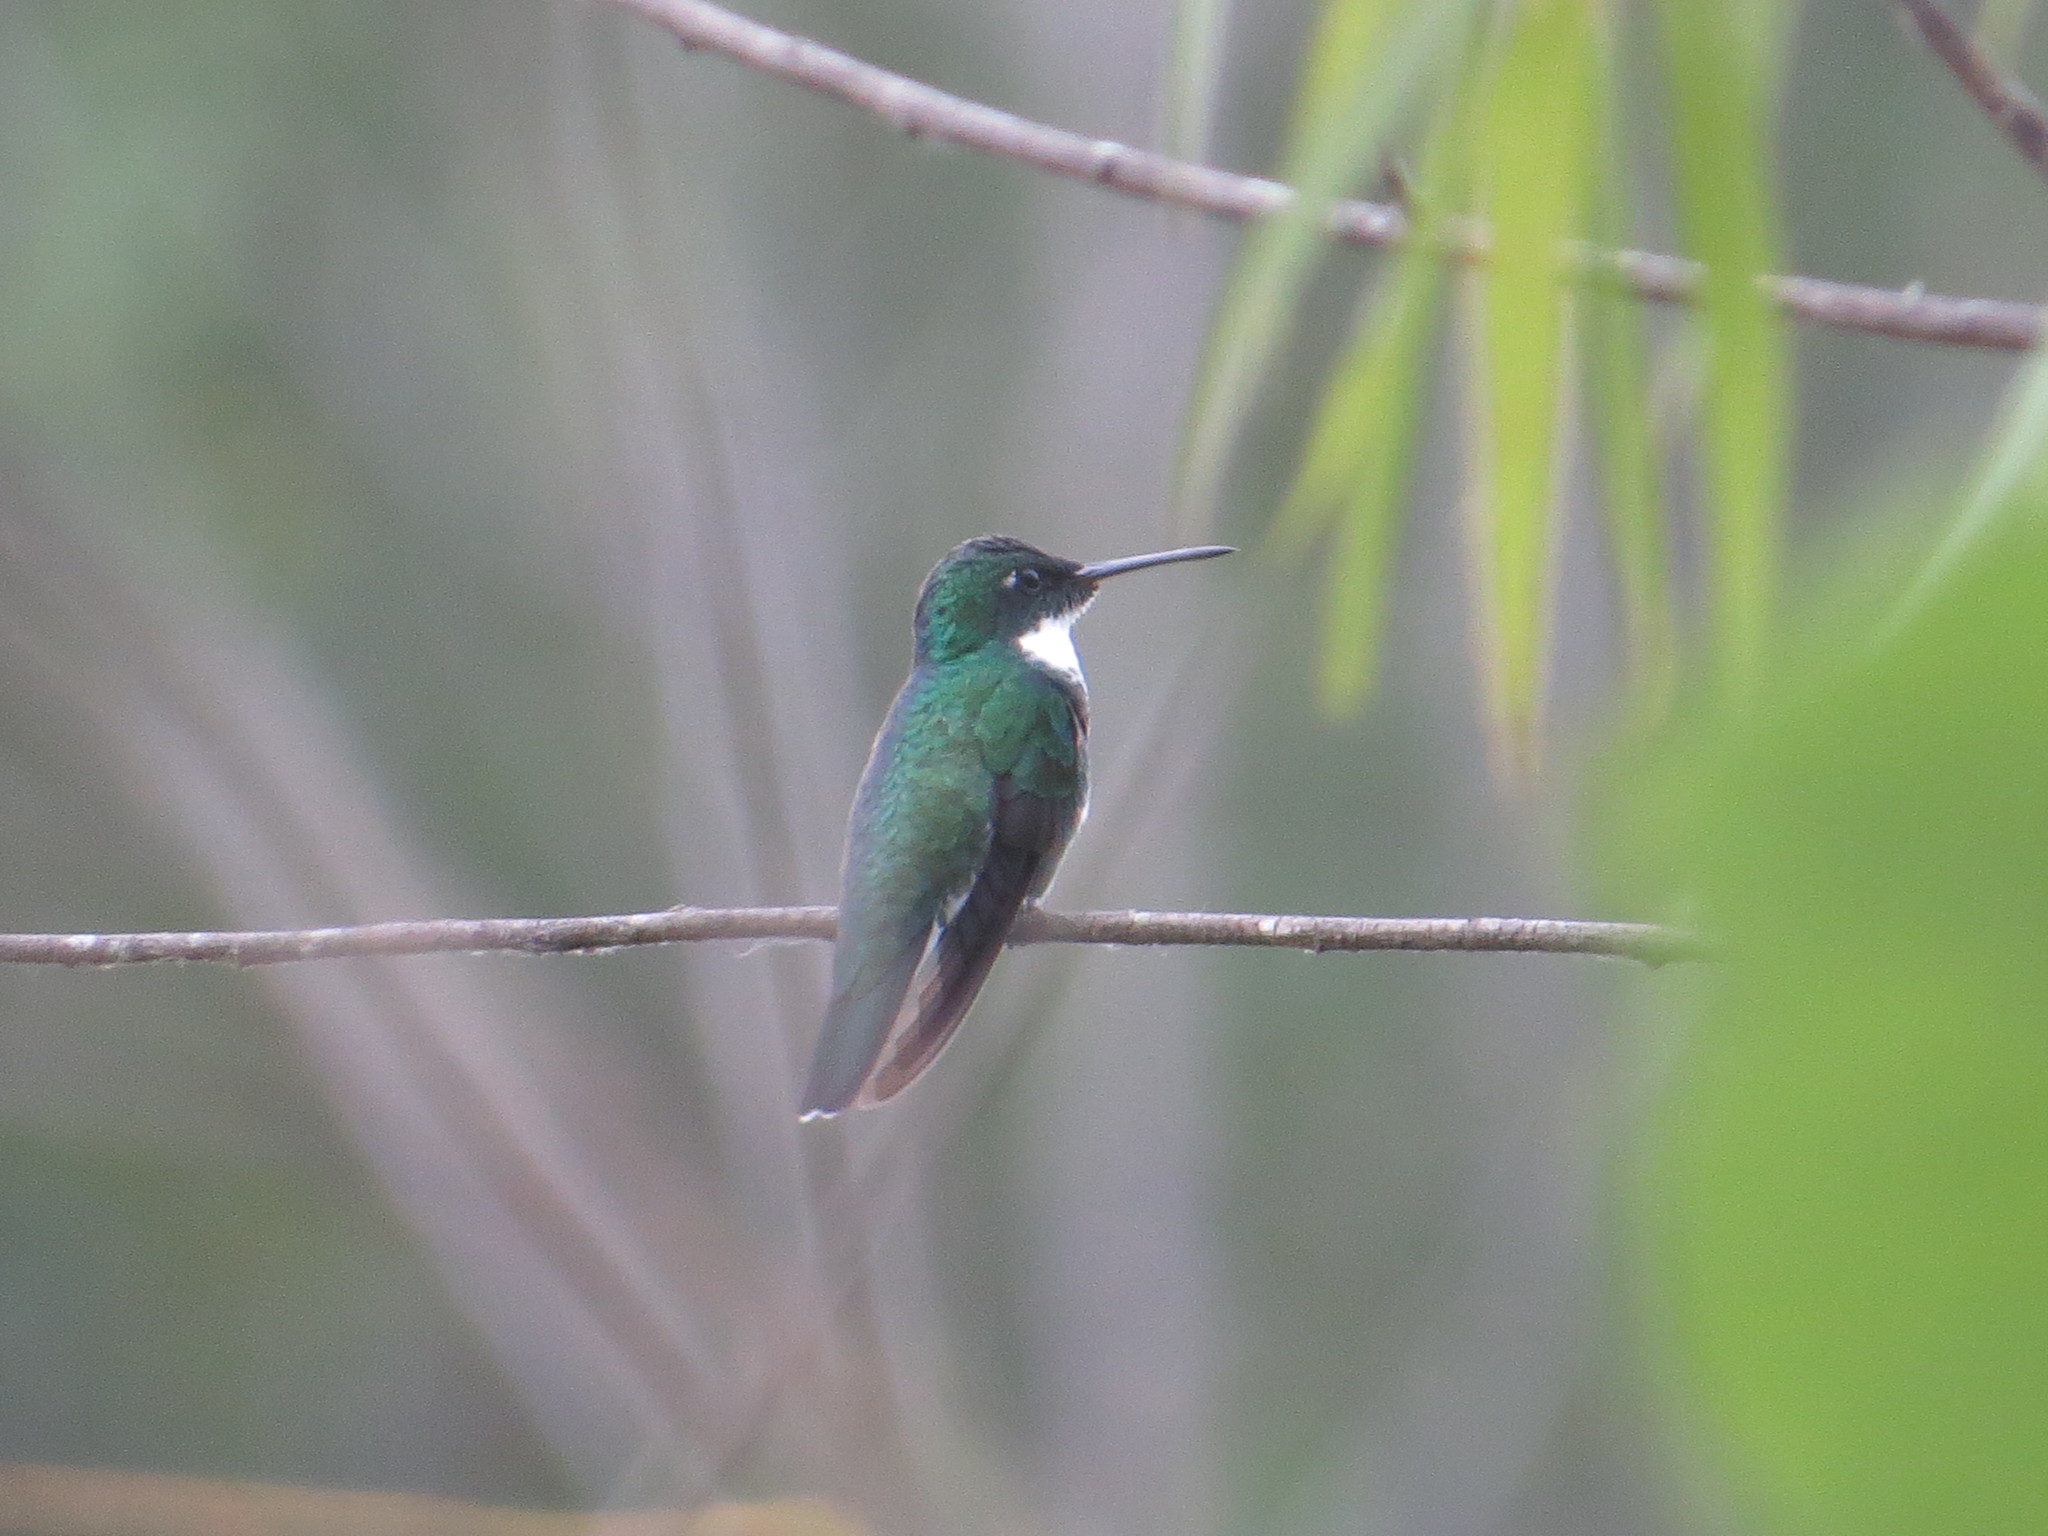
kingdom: Animalia
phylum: Chordata
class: Aves
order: Apodiformes
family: Trochilidae
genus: Leucochloris
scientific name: Leucochloris albicollis
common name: White-throated hummingbird
